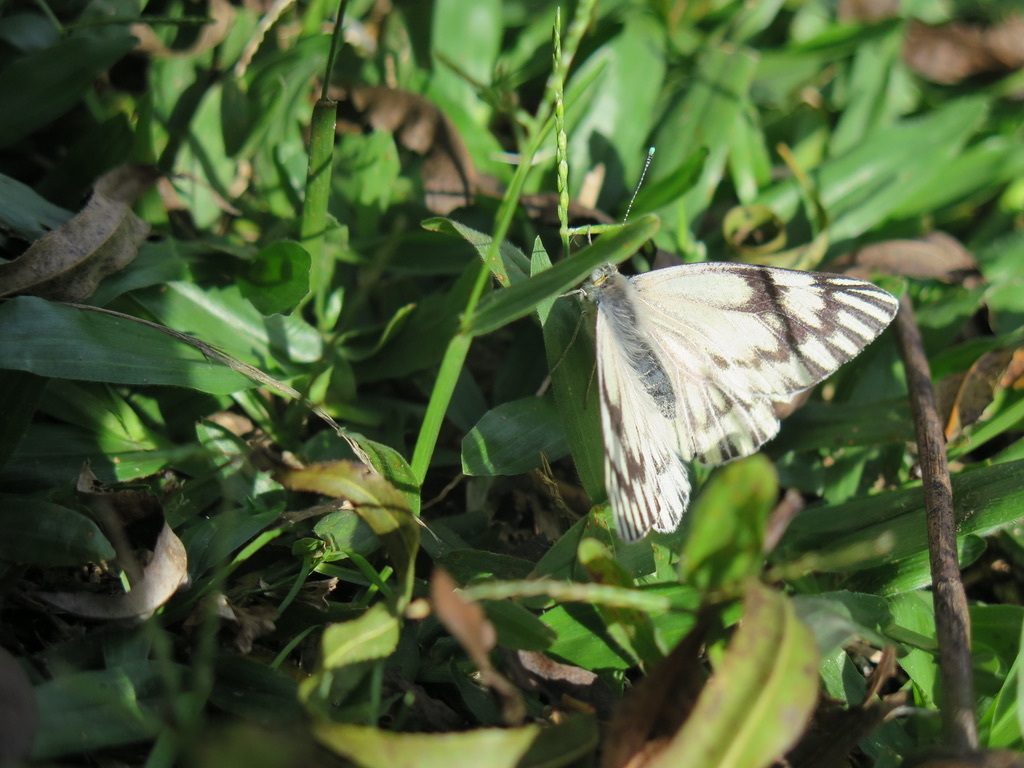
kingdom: Animalia
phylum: Arthropoda
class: Insecta
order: Lepidoptera
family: Pieridae
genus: Tatochila
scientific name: Tatochila mercedis
